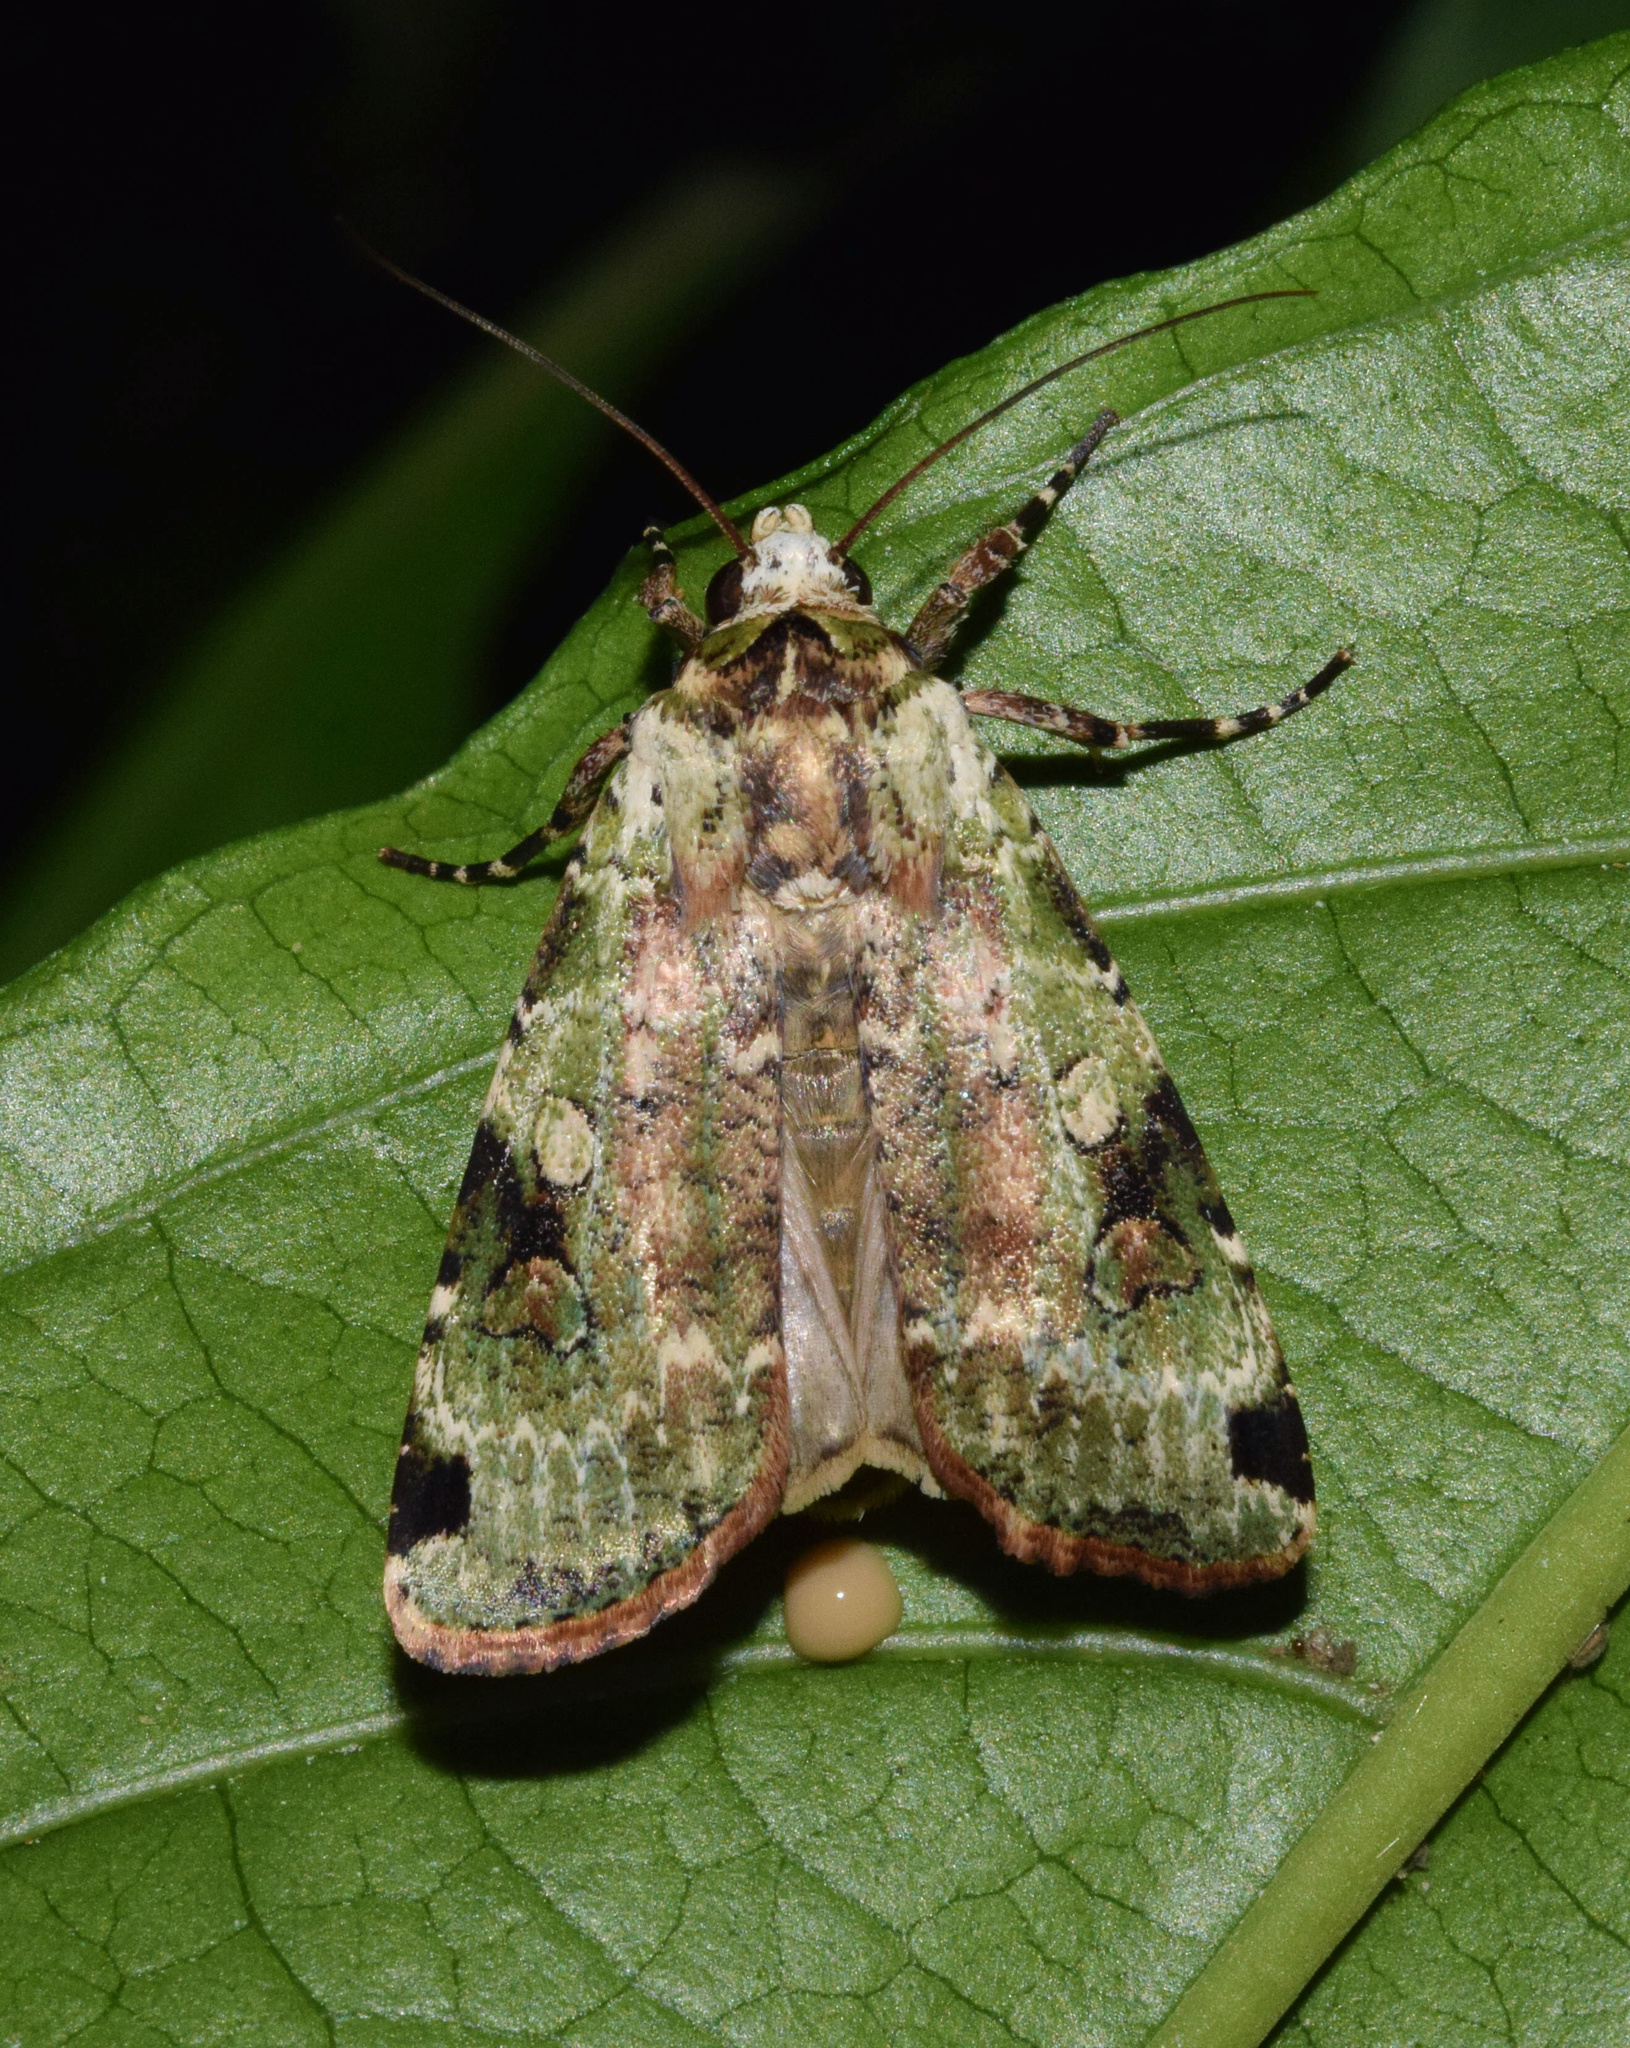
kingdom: Animalia
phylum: Arthropoda
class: Insecta
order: Lepidoptera
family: Noctuidae
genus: Mentaxya
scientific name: Mentaxya ignicollis
